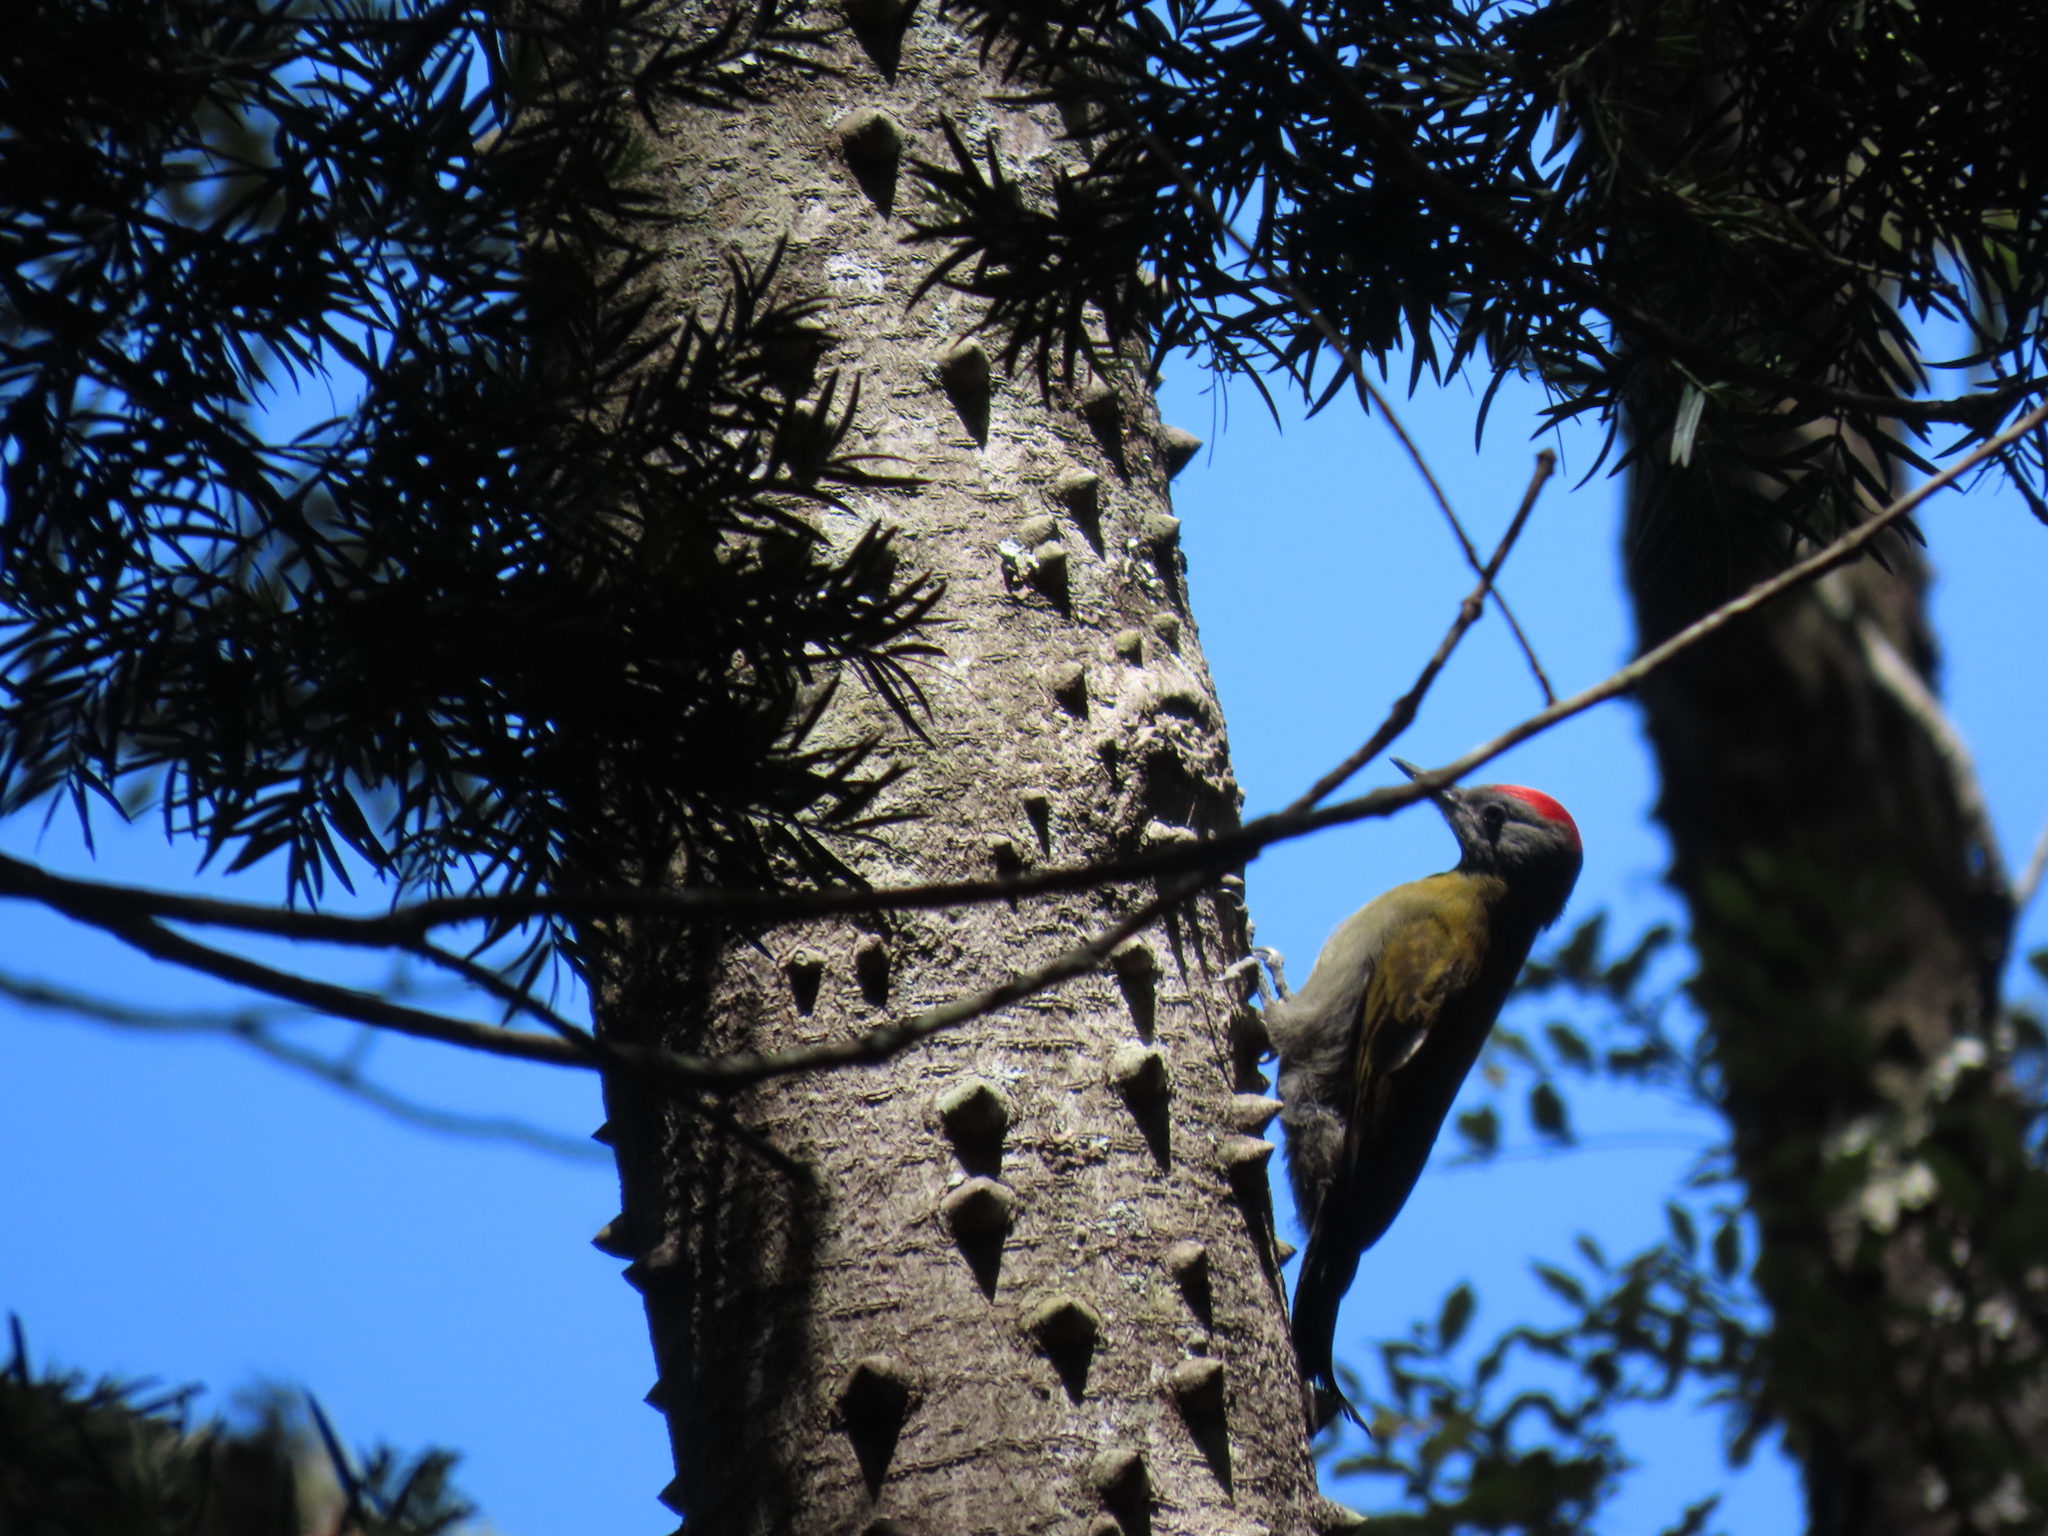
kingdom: Animalia
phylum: Chordata
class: Aves
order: Piciformes
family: Picidae
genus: Dendropicos
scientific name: Dendropicos griseocephalus
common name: Olive woodpecker
